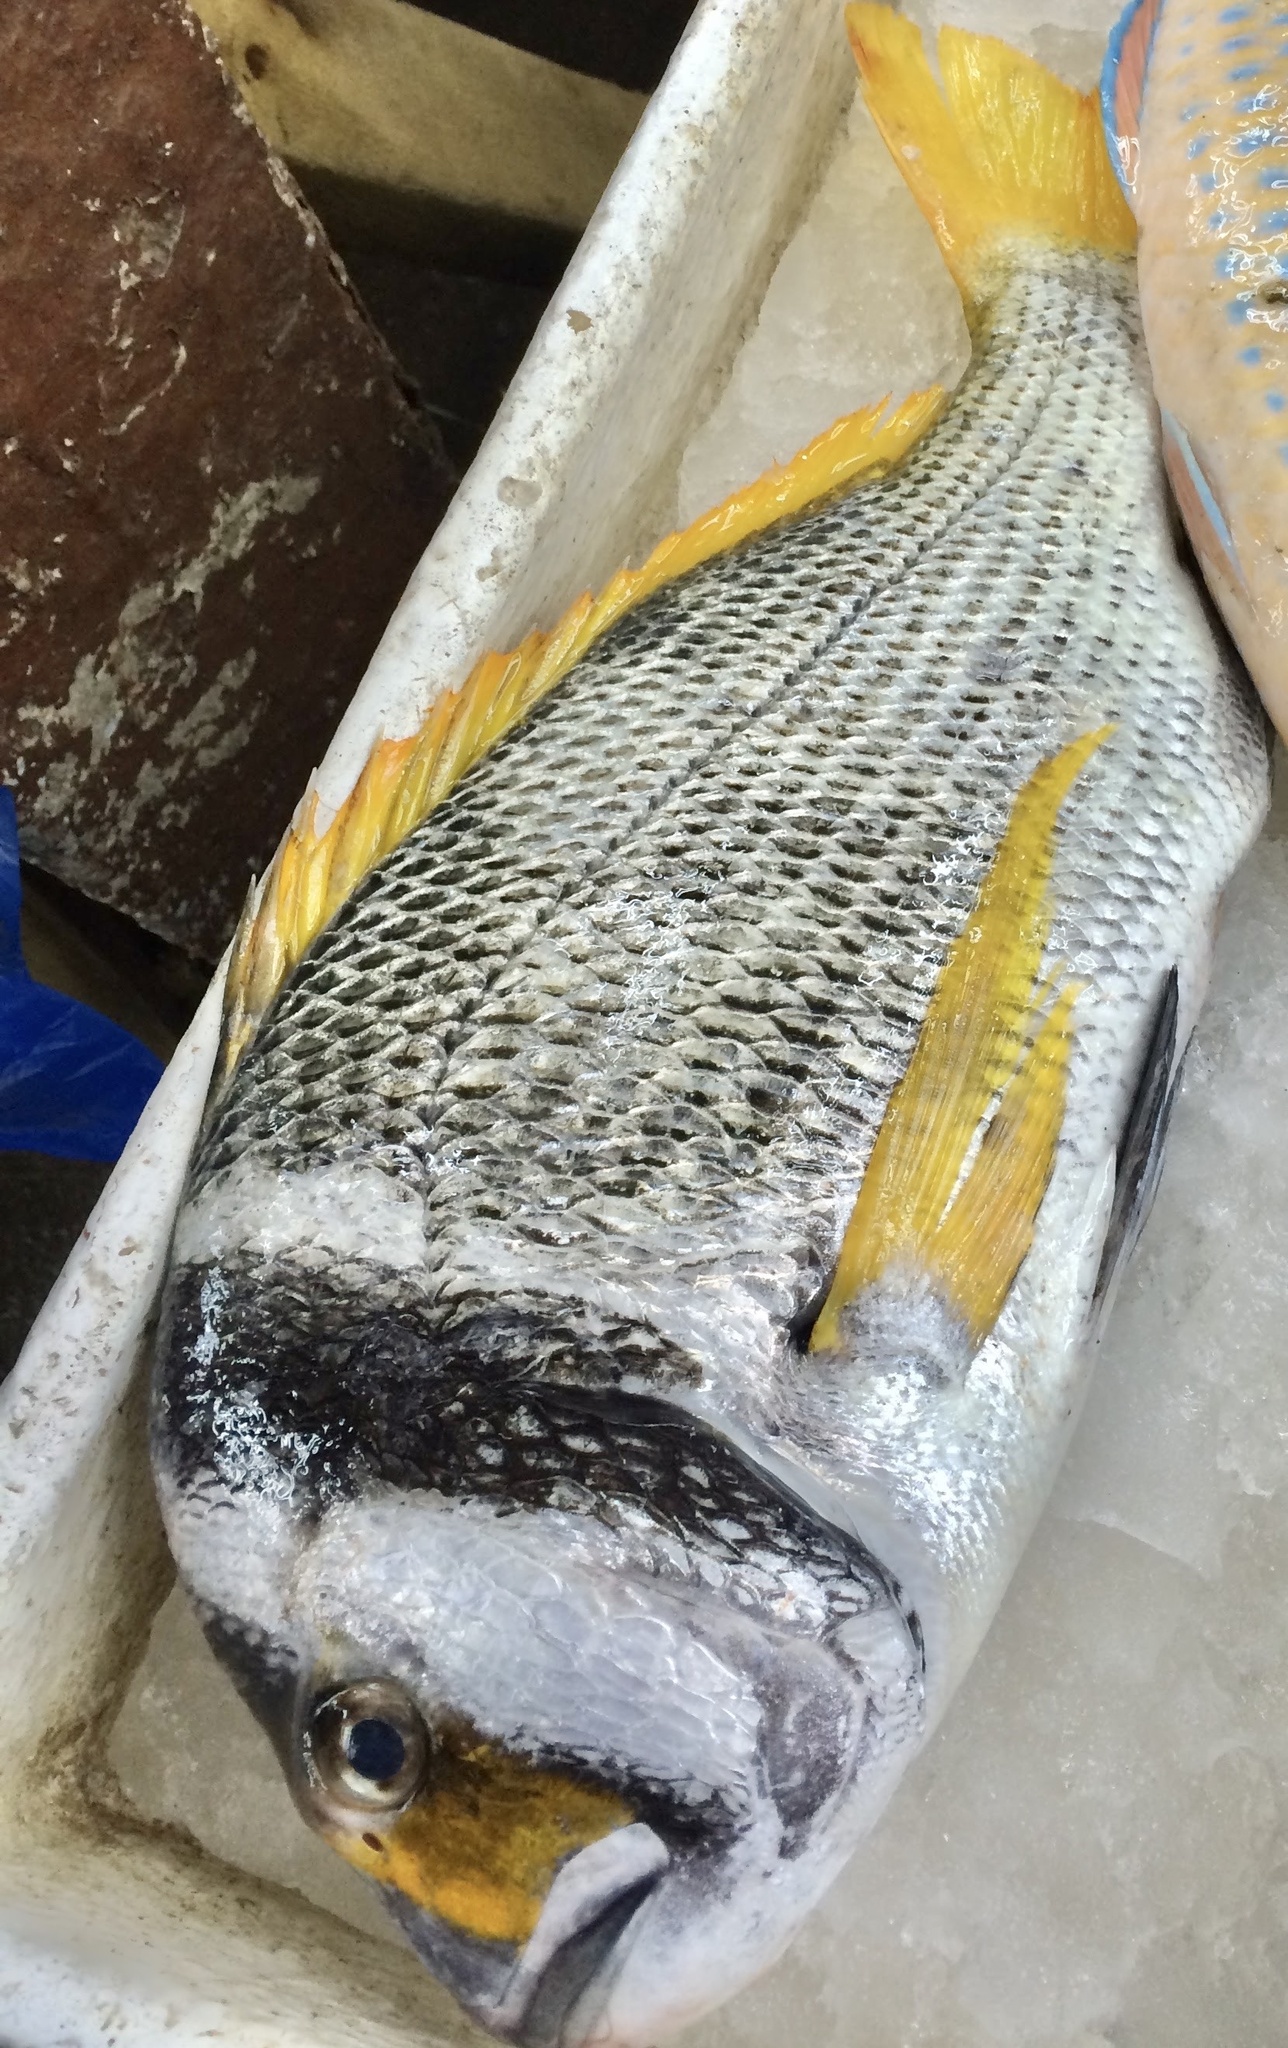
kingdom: Animalia
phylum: Chordata
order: Perciformes
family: Sparidae
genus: Acanthopagrus
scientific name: Acanthopagrus bifasciatus
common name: Twobar seabream
